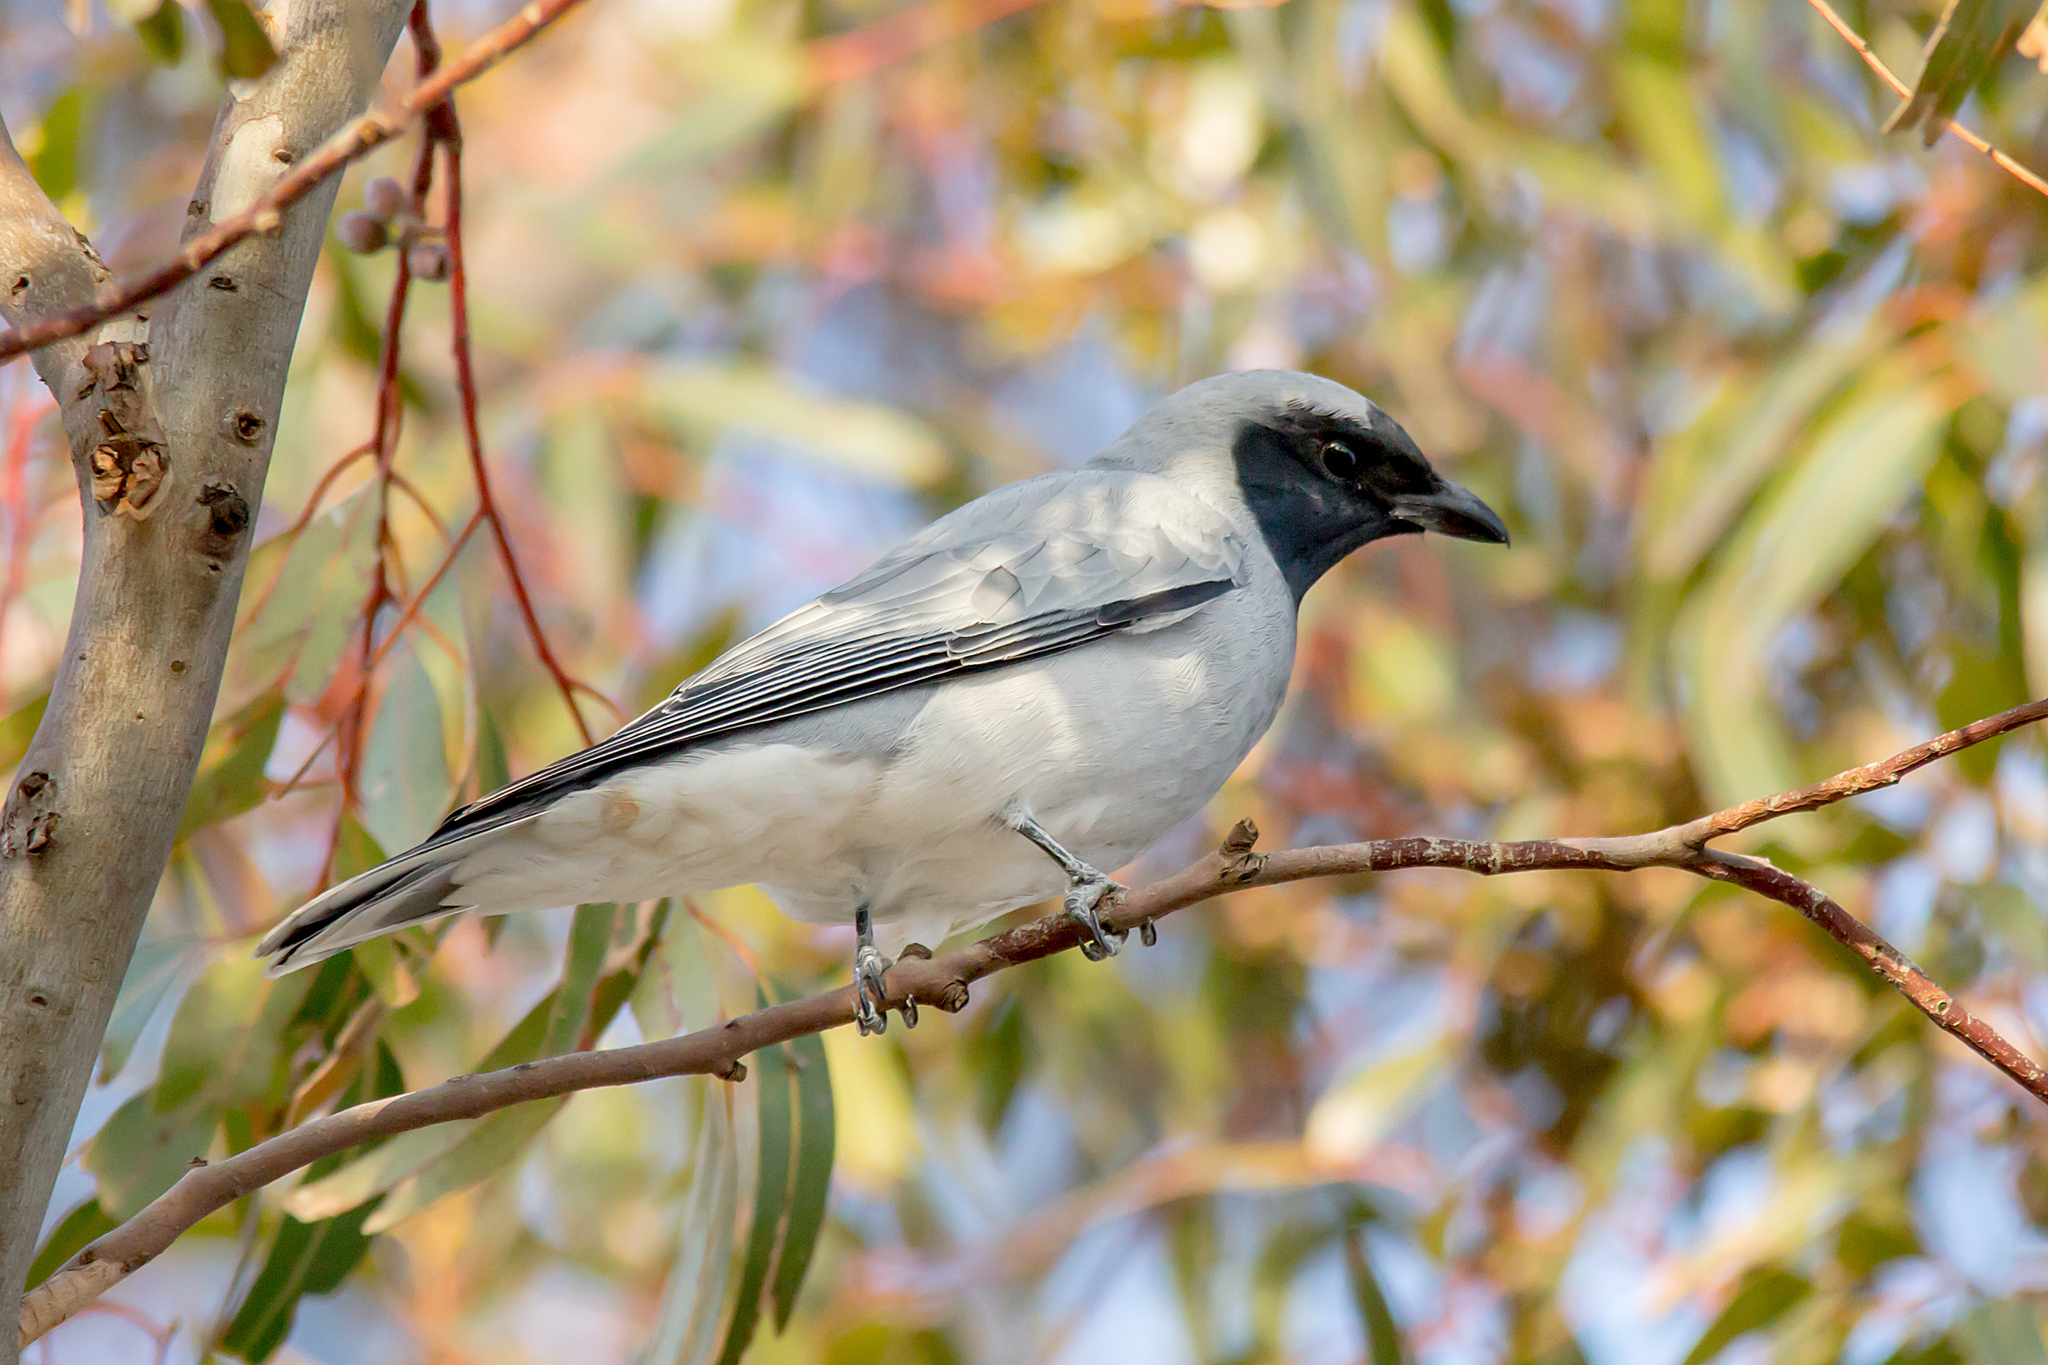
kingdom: Animalia
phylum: Chordata
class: Aves
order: Passeriformes
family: Campephagidae
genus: Coracina
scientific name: Coracina novaehollandiae
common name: Black-faced cuckooshrike
